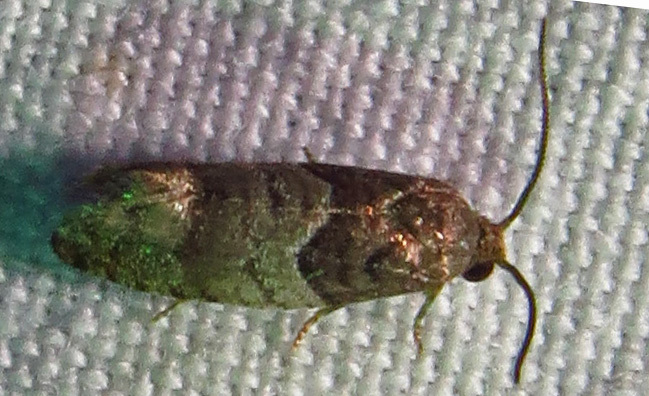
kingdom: Animalia
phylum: Arthropoda
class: Insecta
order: Lepidoptera
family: Tortricidae
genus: Larisa
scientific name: Larisa subsolana
